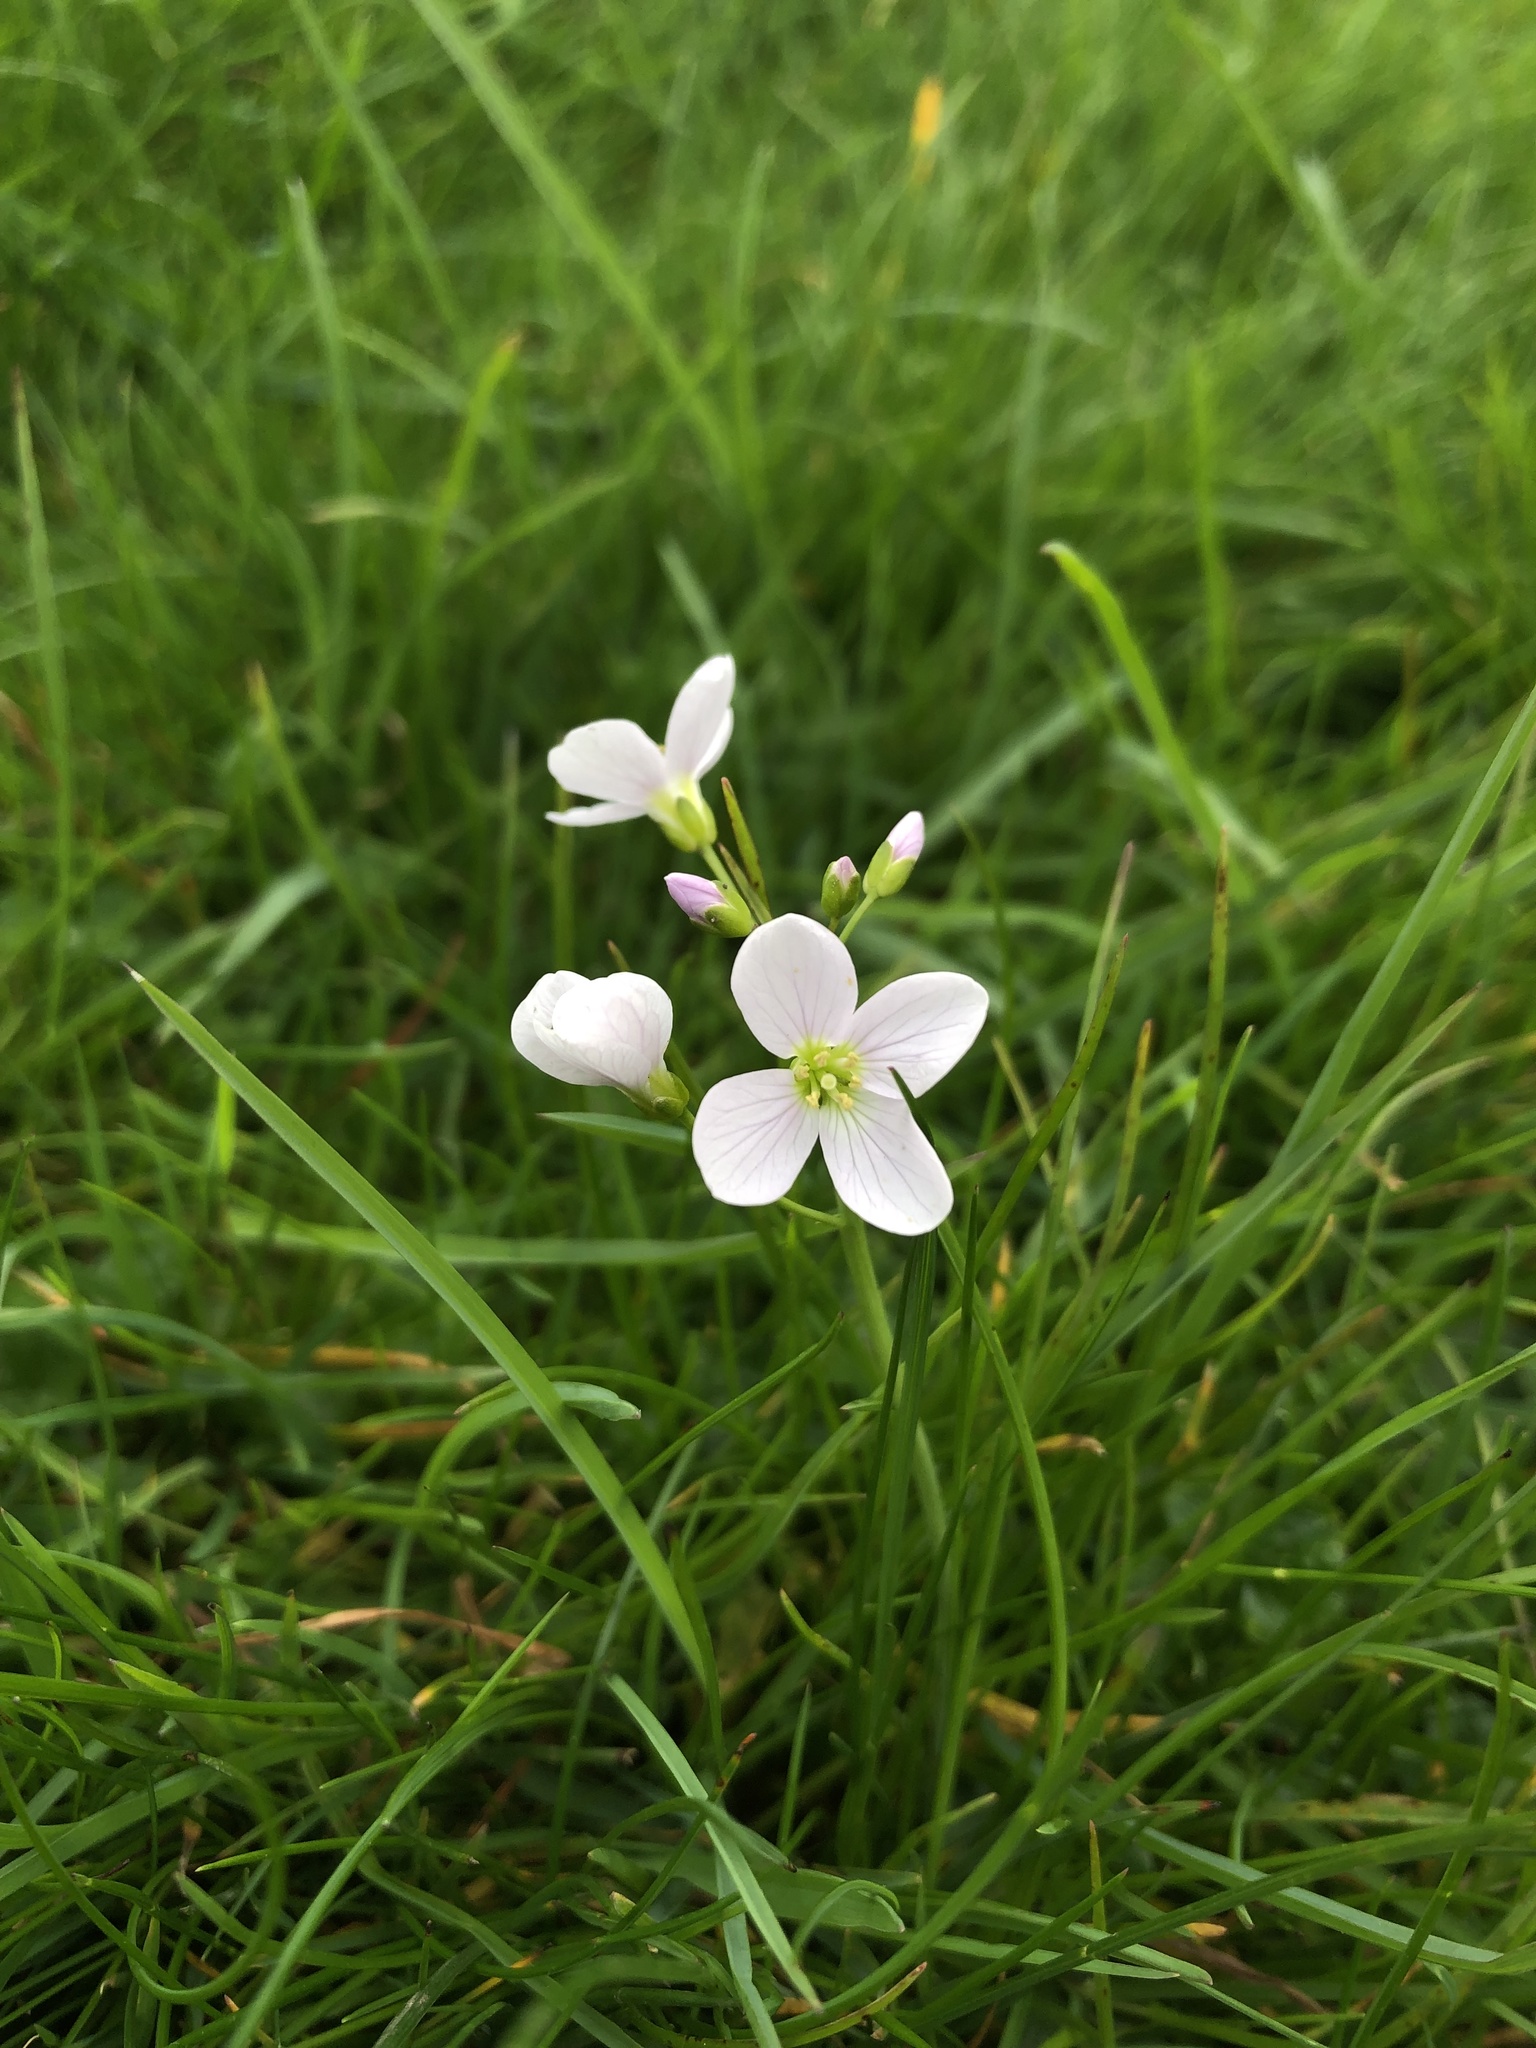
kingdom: Plantae
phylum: Tracheophyta
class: Magnoliopsida
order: Brassicales
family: Brassicaceae
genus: Cardamine
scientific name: Cardamine pratensis
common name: Cuckoo flower
